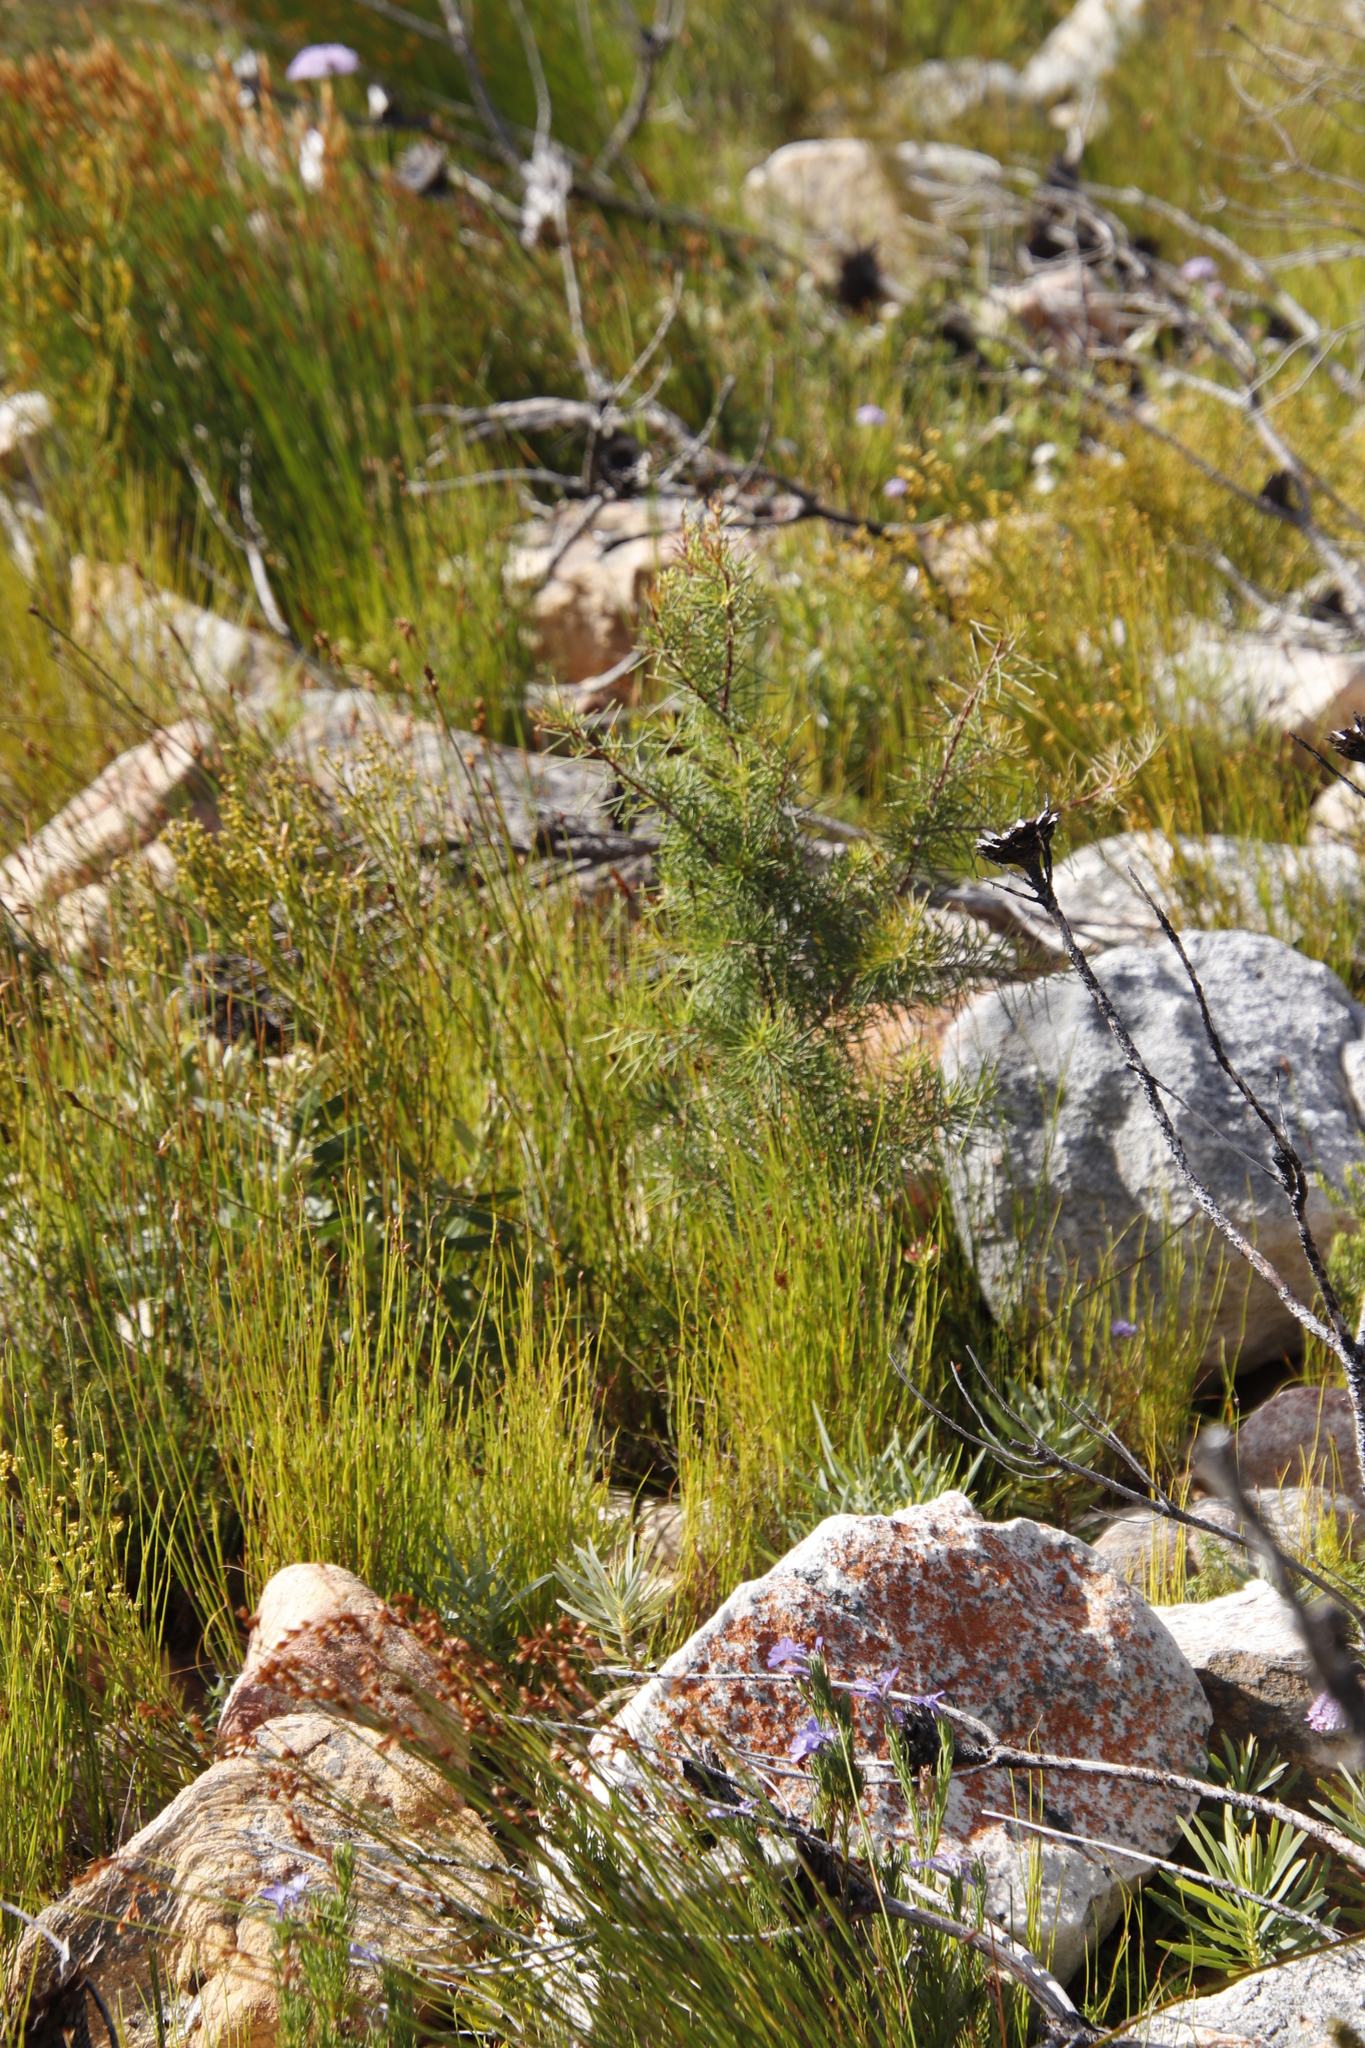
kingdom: Plantae
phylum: Tracheophyta
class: Magnoliopsida
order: Proteales
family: Proteaceae
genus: Hakea
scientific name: Hakea sericea
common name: Needle bush
